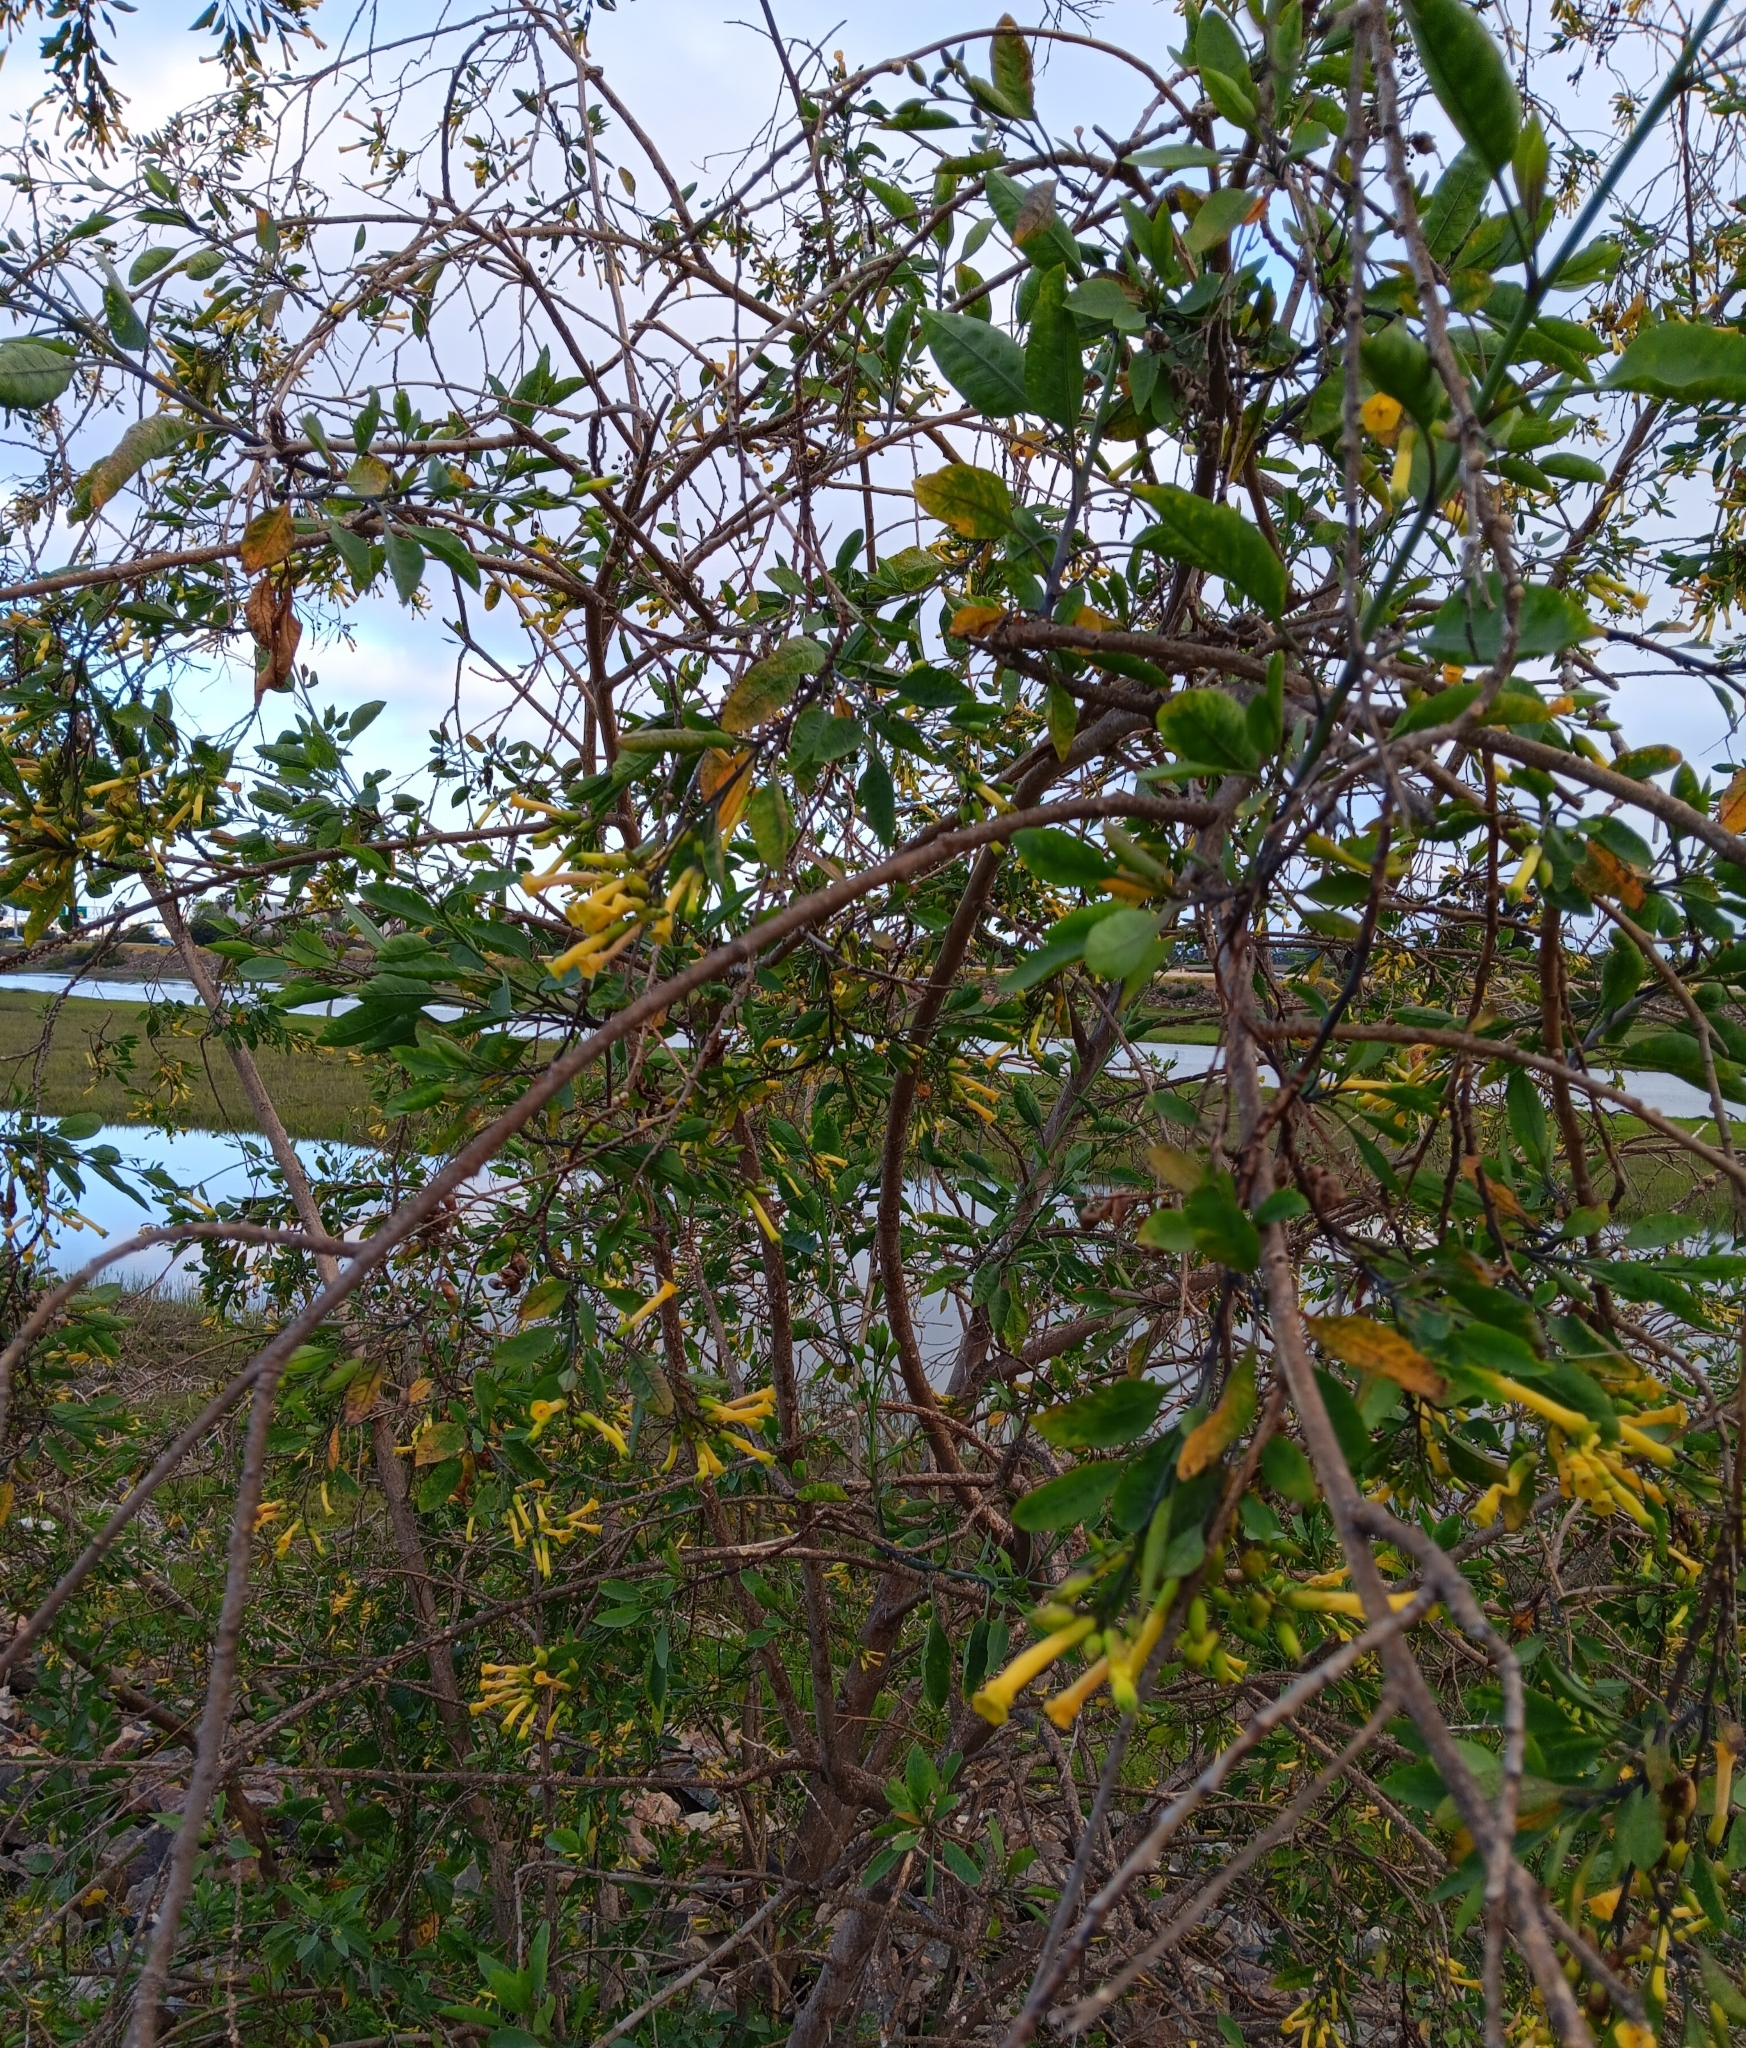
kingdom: Plantae
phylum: Tracheophyta
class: Magnoliopsida
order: Solanales
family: Solanaceae
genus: Nicotiana
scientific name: Nicotiana glauca
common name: Tree tobacco
